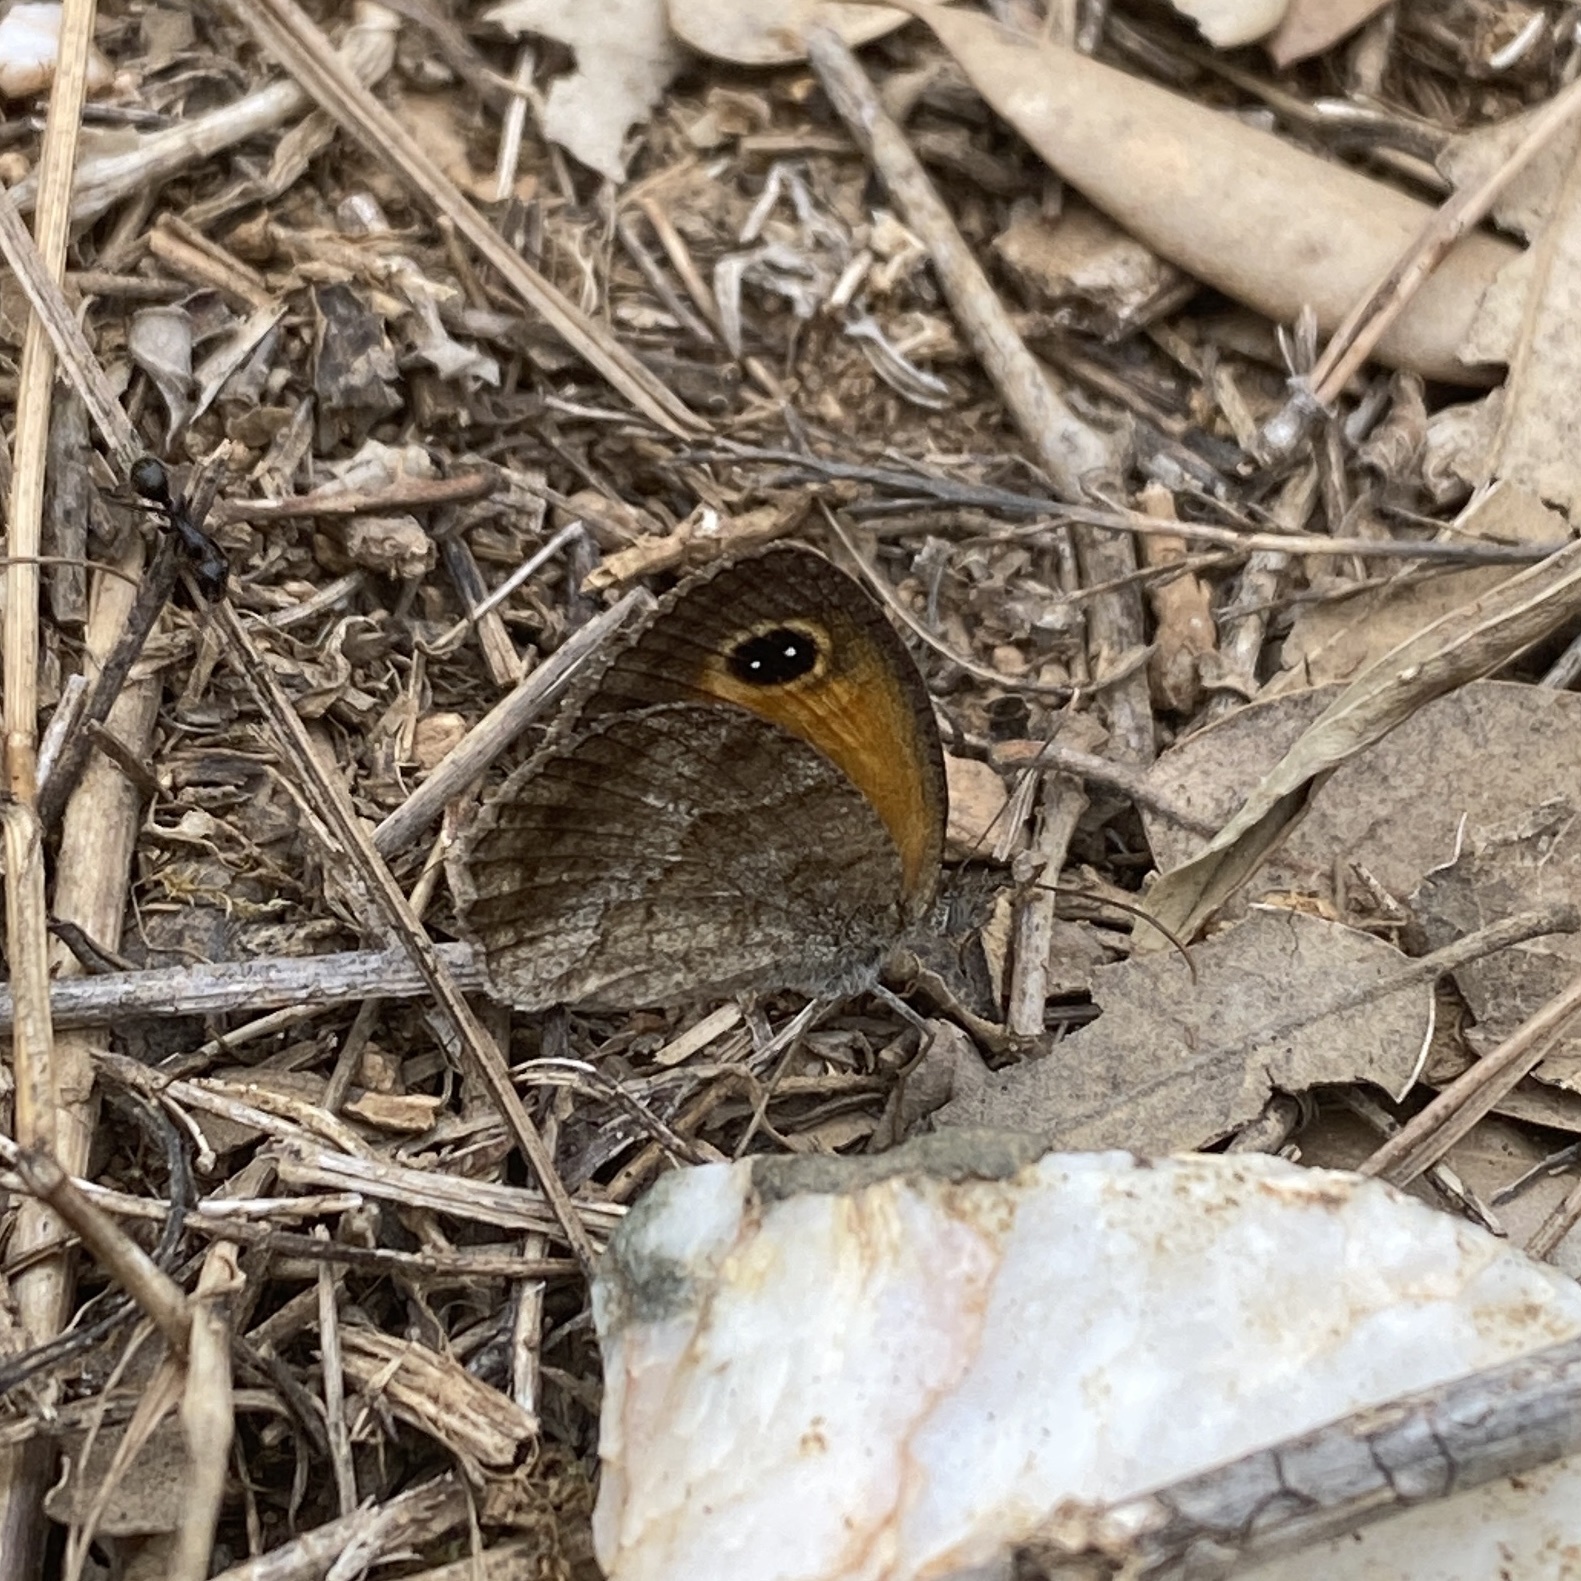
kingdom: Animalia
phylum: Arthropoda
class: Insecta
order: Lepidoptera
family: Nymphalidae
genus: Pyronia
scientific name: Pyronia cecilia
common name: Southern gatekeeper
